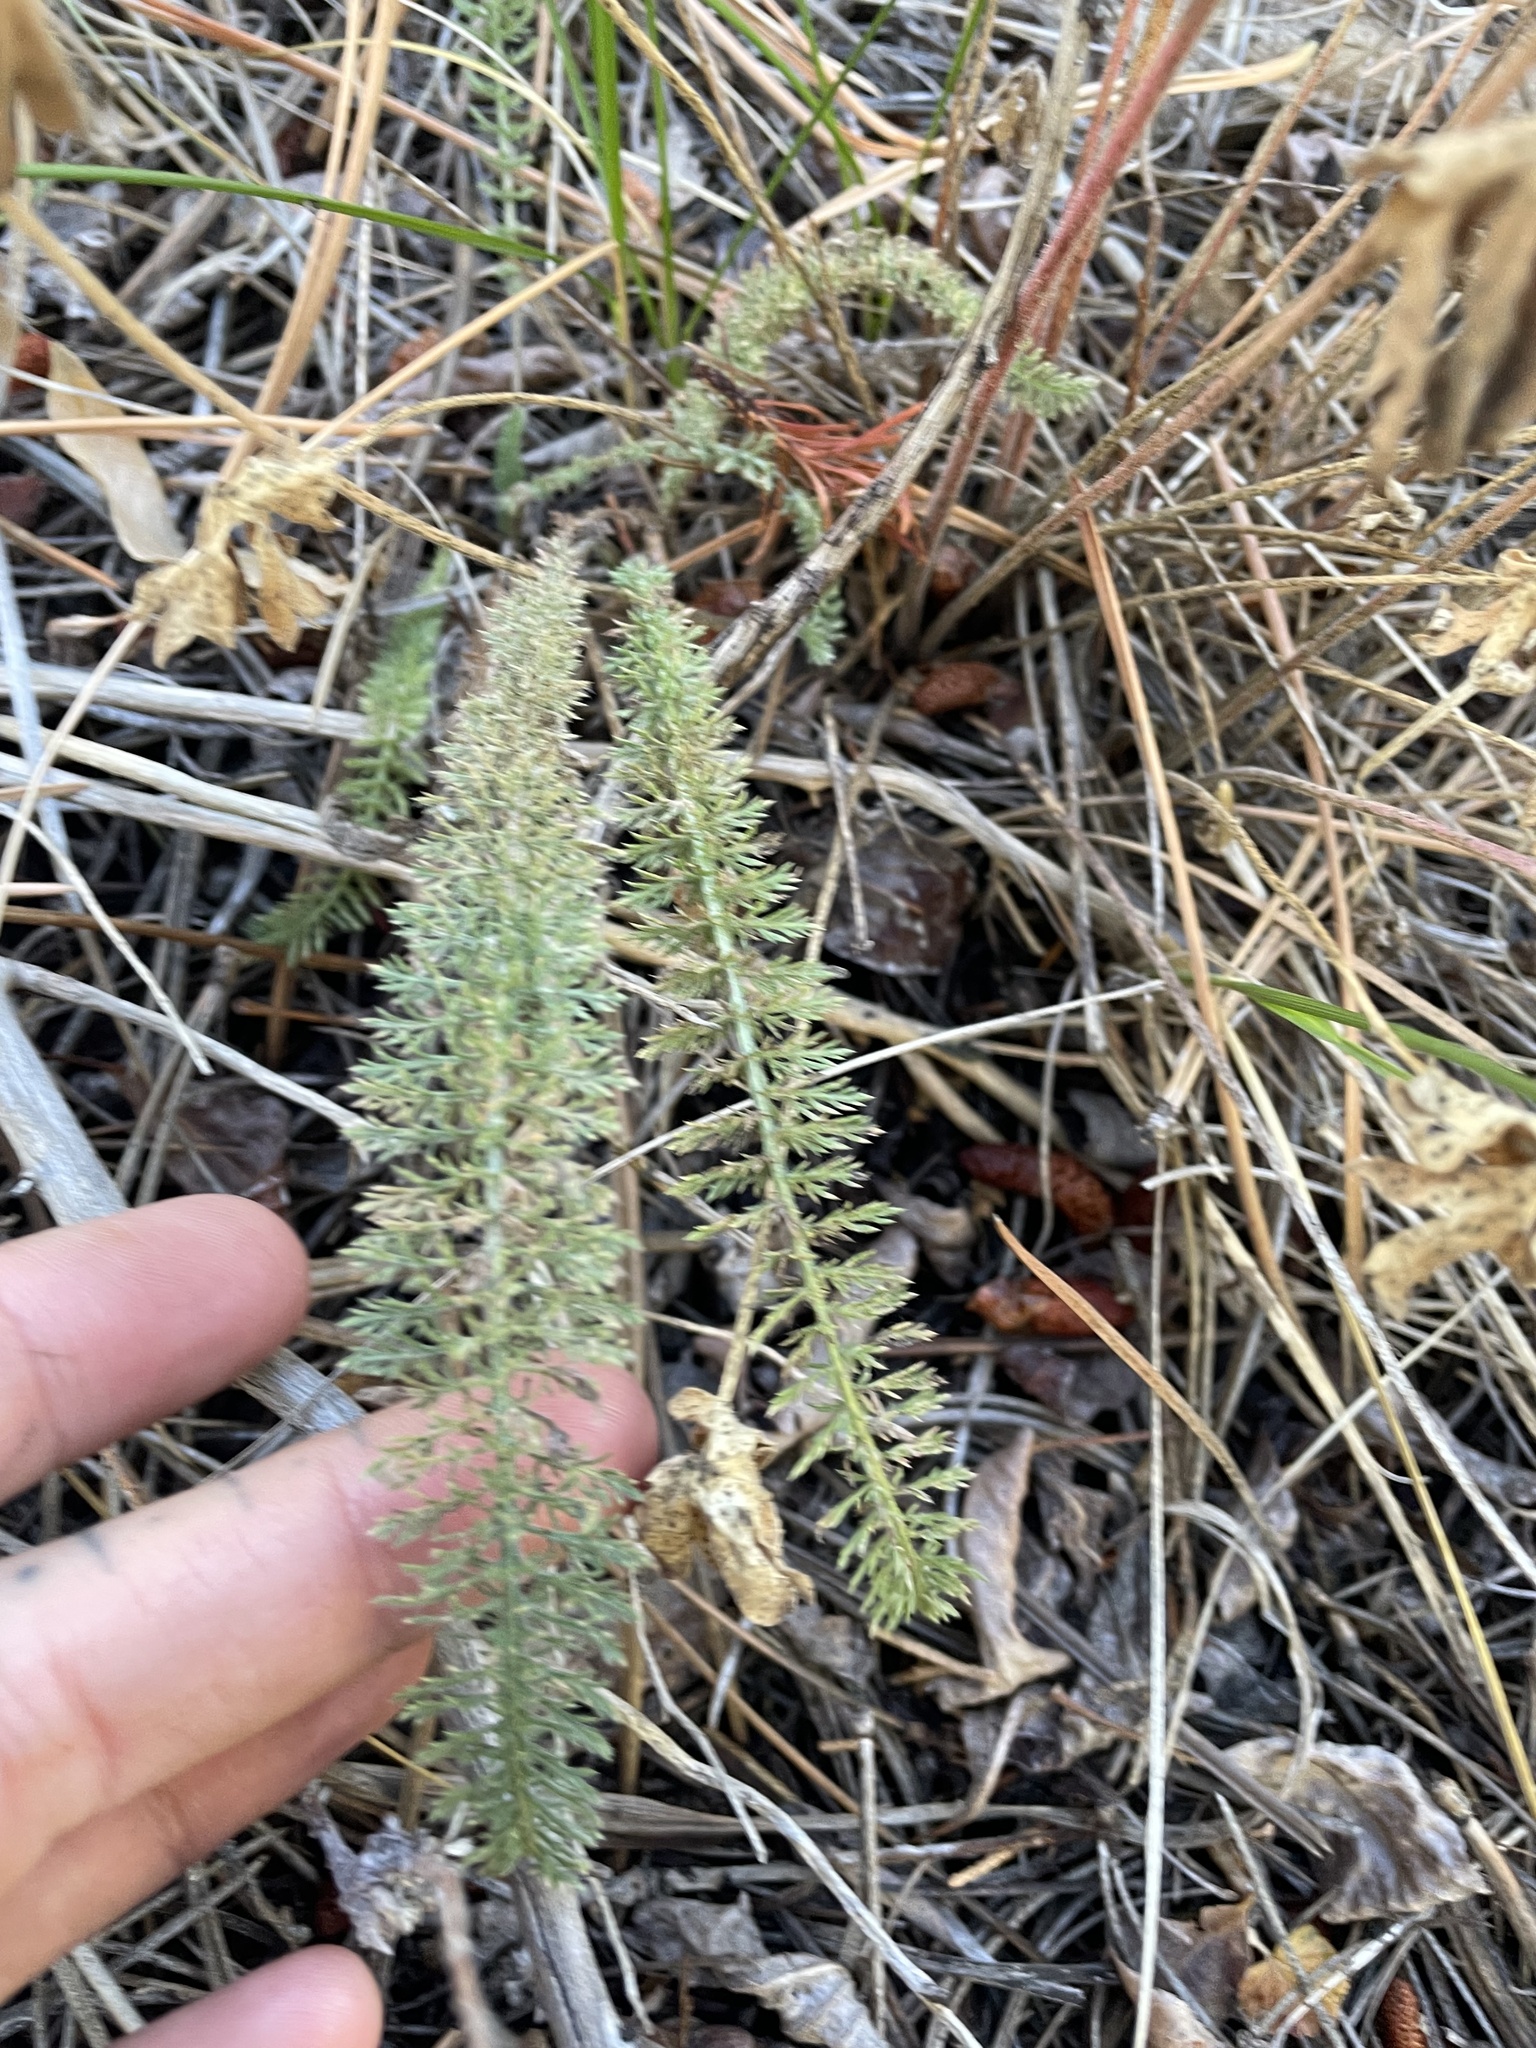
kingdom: Plantae
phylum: Tracheophyta
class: Magnoliopsida
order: Asterales
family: Asteraceae
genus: Achillea
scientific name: Achillea millefolium
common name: Yarrow
